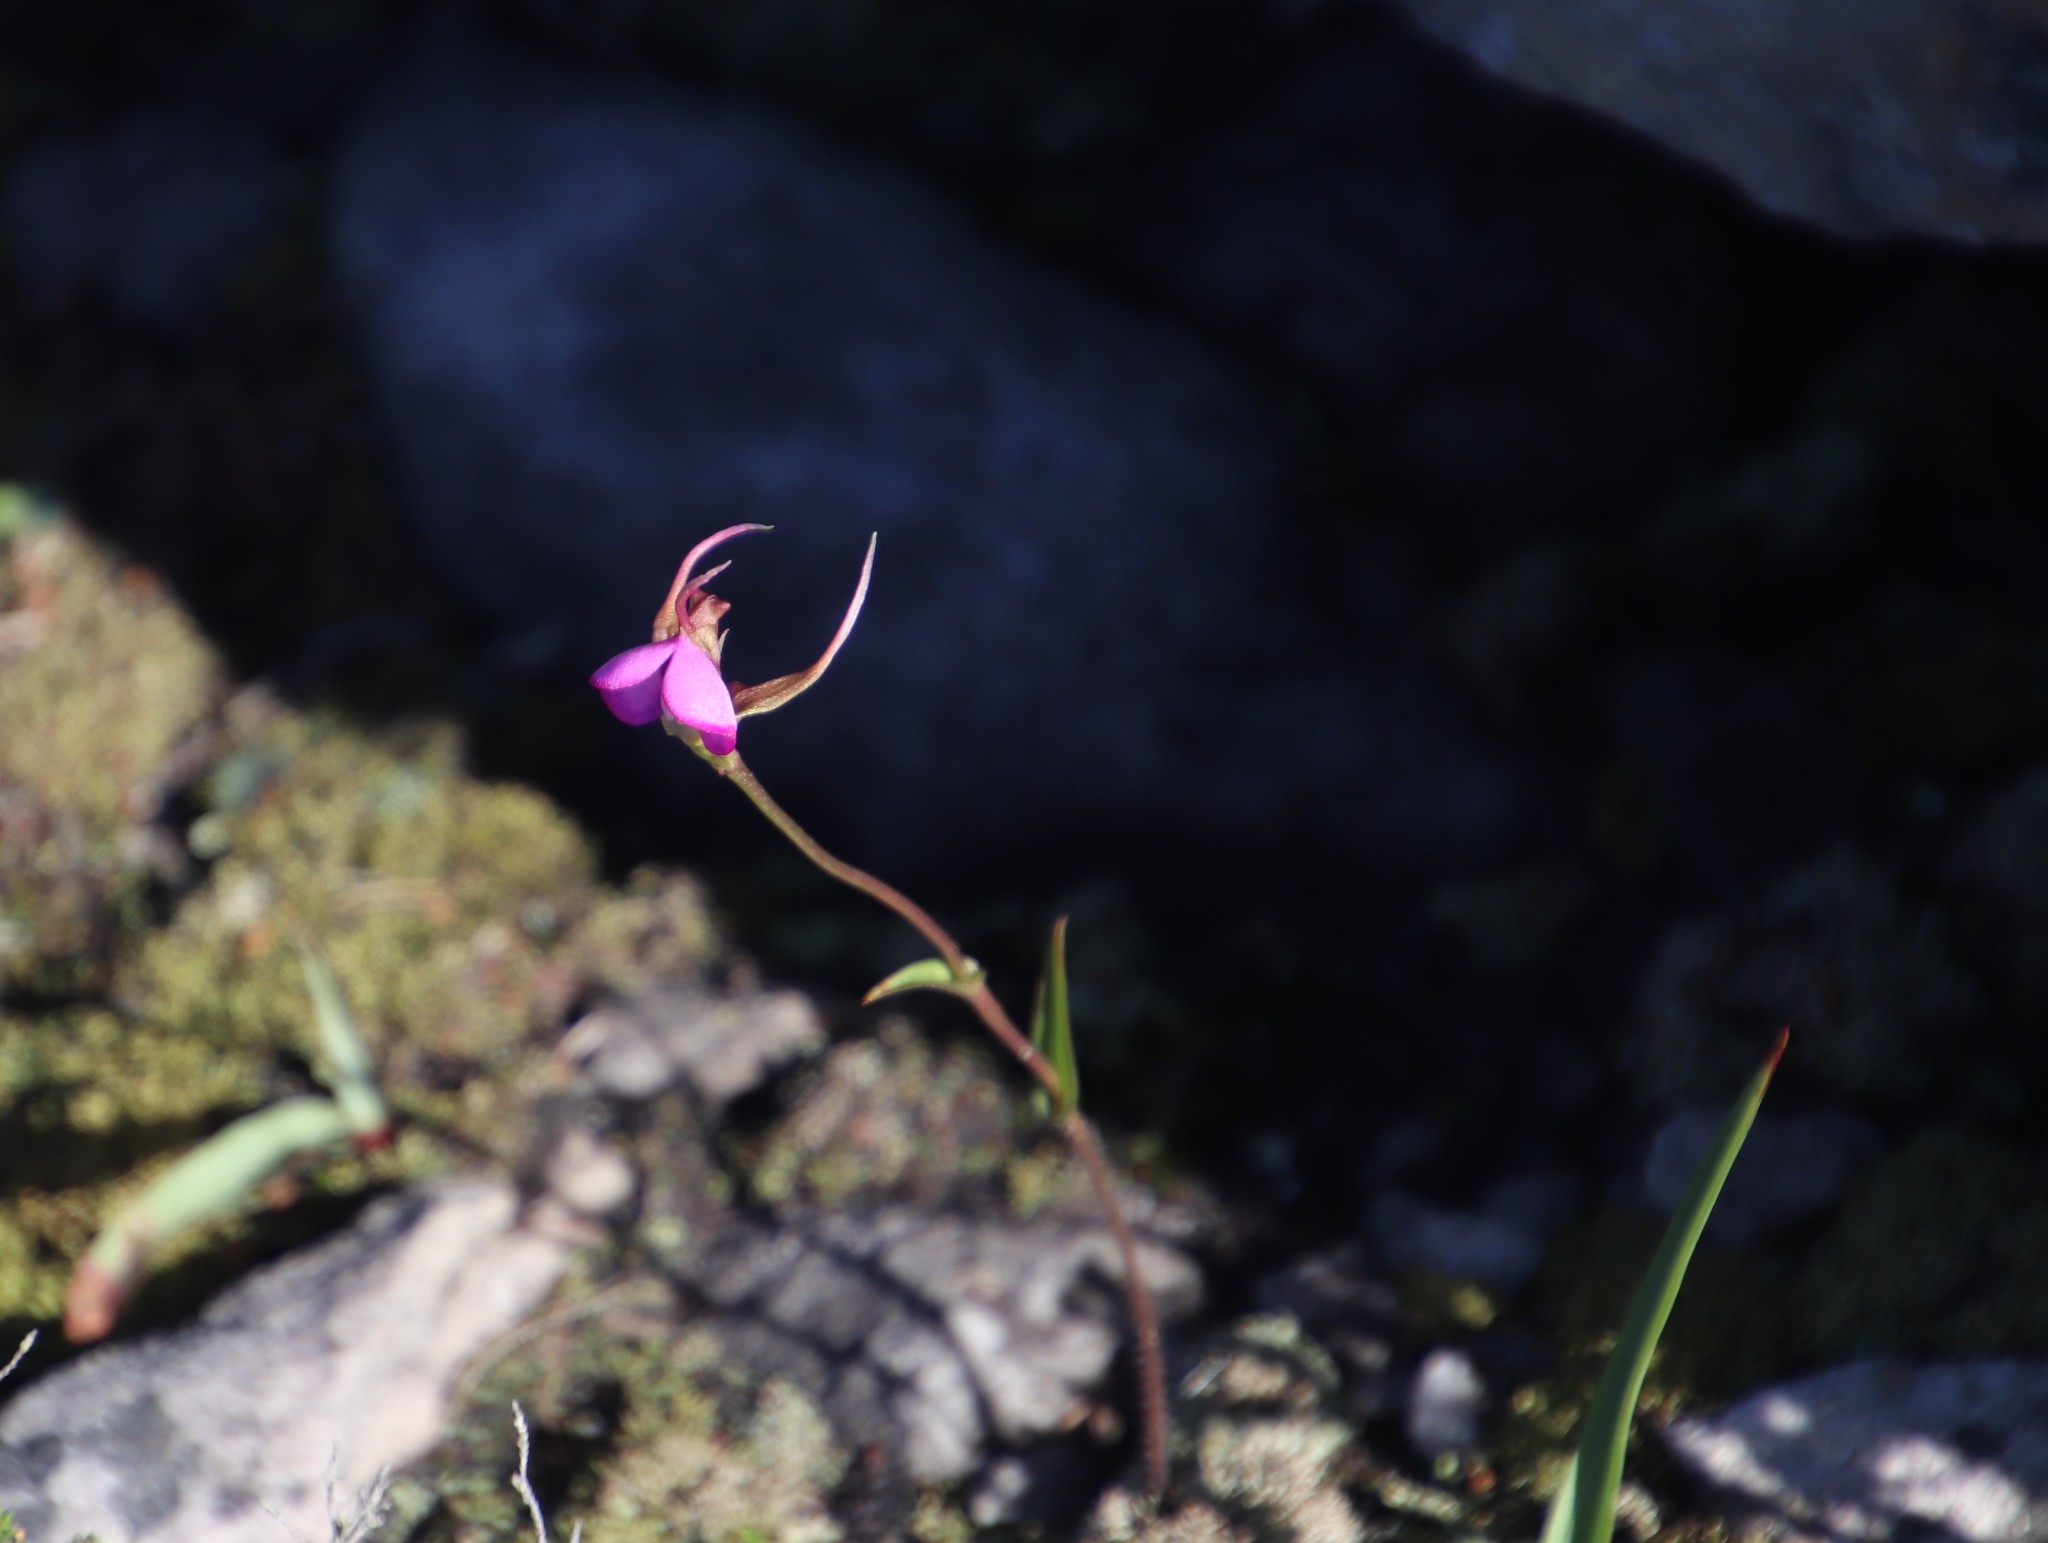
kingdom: Plantae
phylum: Tracheophyta
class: Liliopsida
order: Asparagales
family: Orchidaceae
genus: Disperis
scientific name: Disperis capensis
